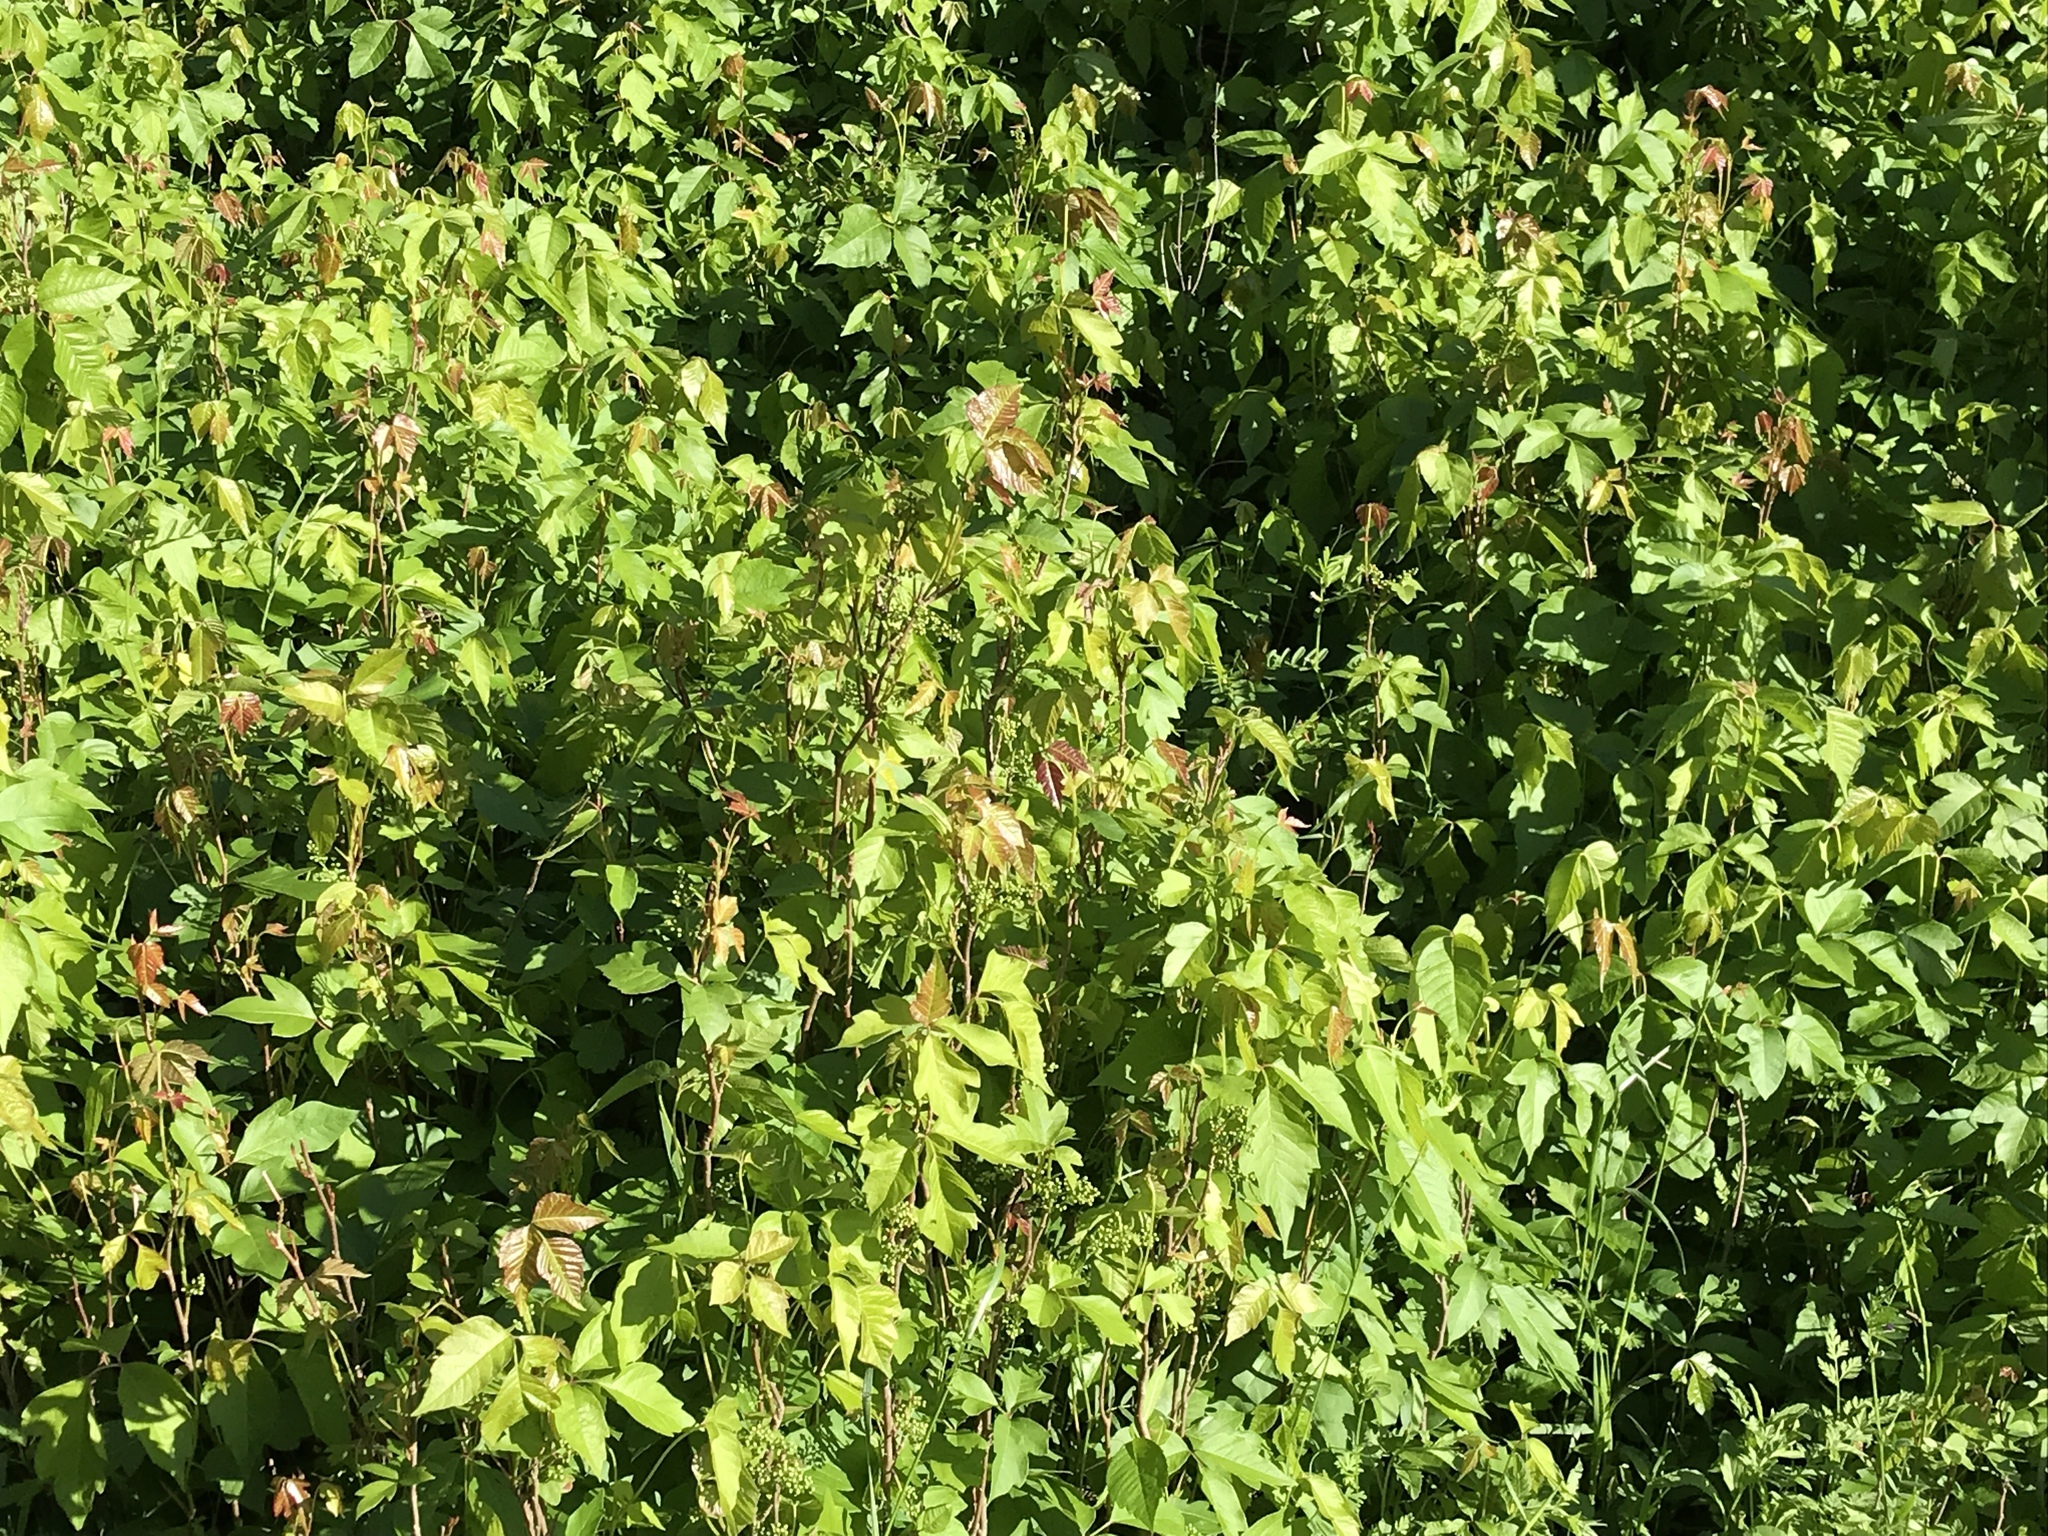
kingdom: Plantae
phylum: Tracheophyta
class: Magnoliopsida
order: Sapindales
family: Anacardiaceae
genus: Toxicodendron
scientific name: Toxicodendron radicans
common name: Poison ivy
